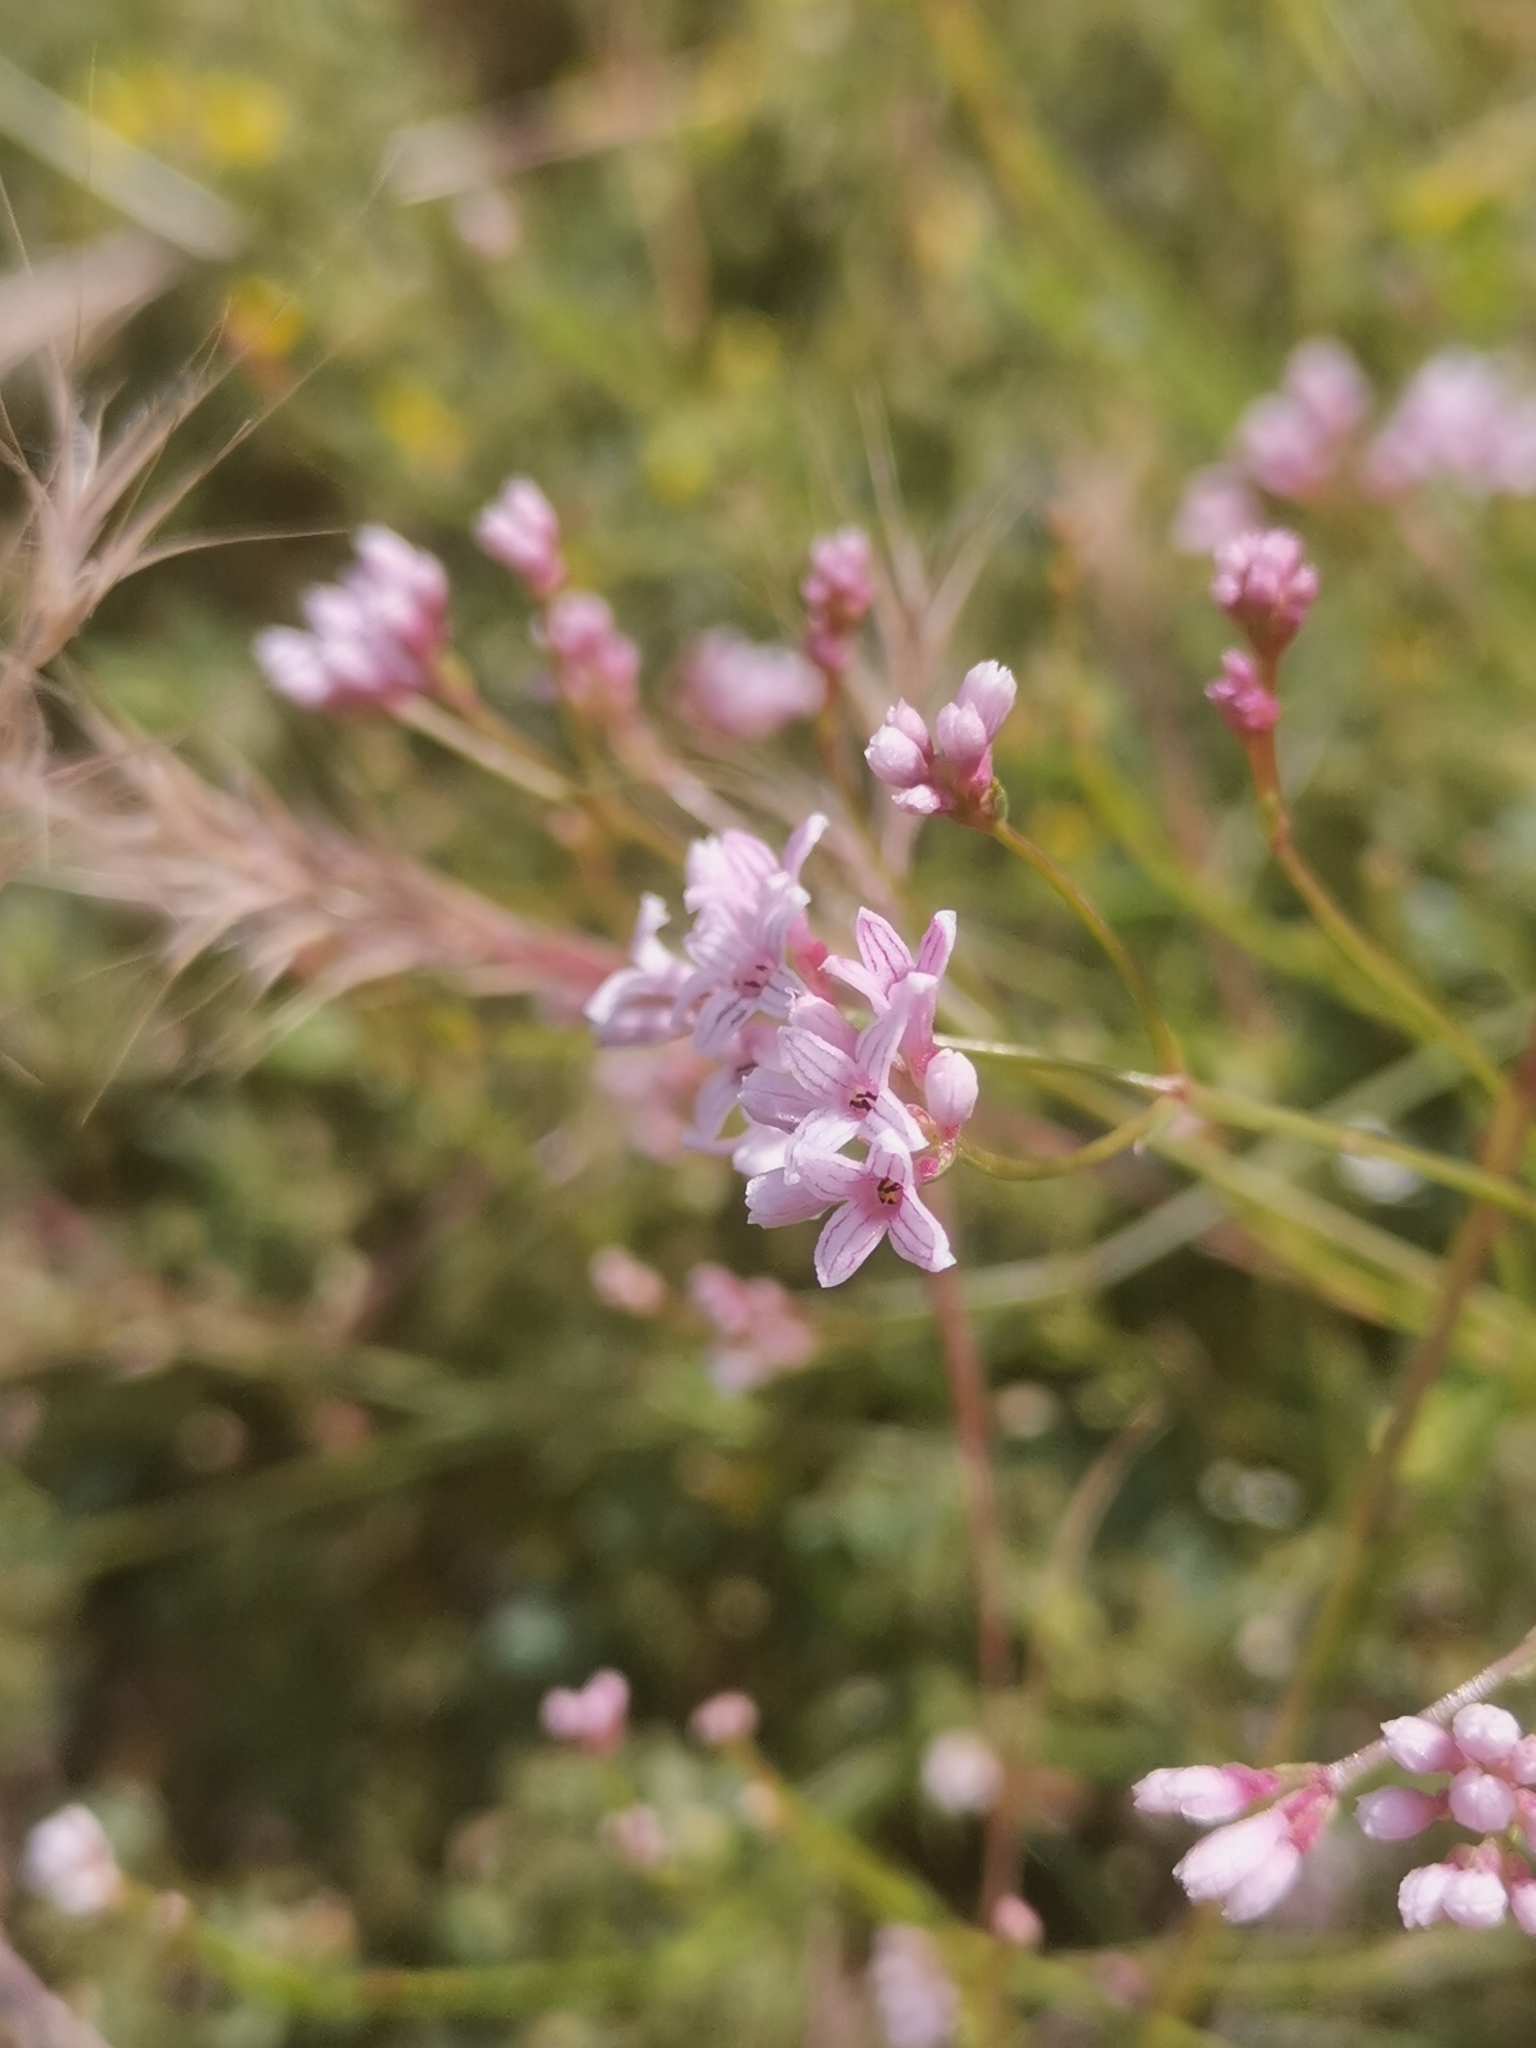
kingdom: Plantae
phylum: Tracheophyta
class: Magnoliopsida
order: Gentianales
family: Rubiaceae
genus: Cynanchica
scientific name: Cynanchica pyrenaica
